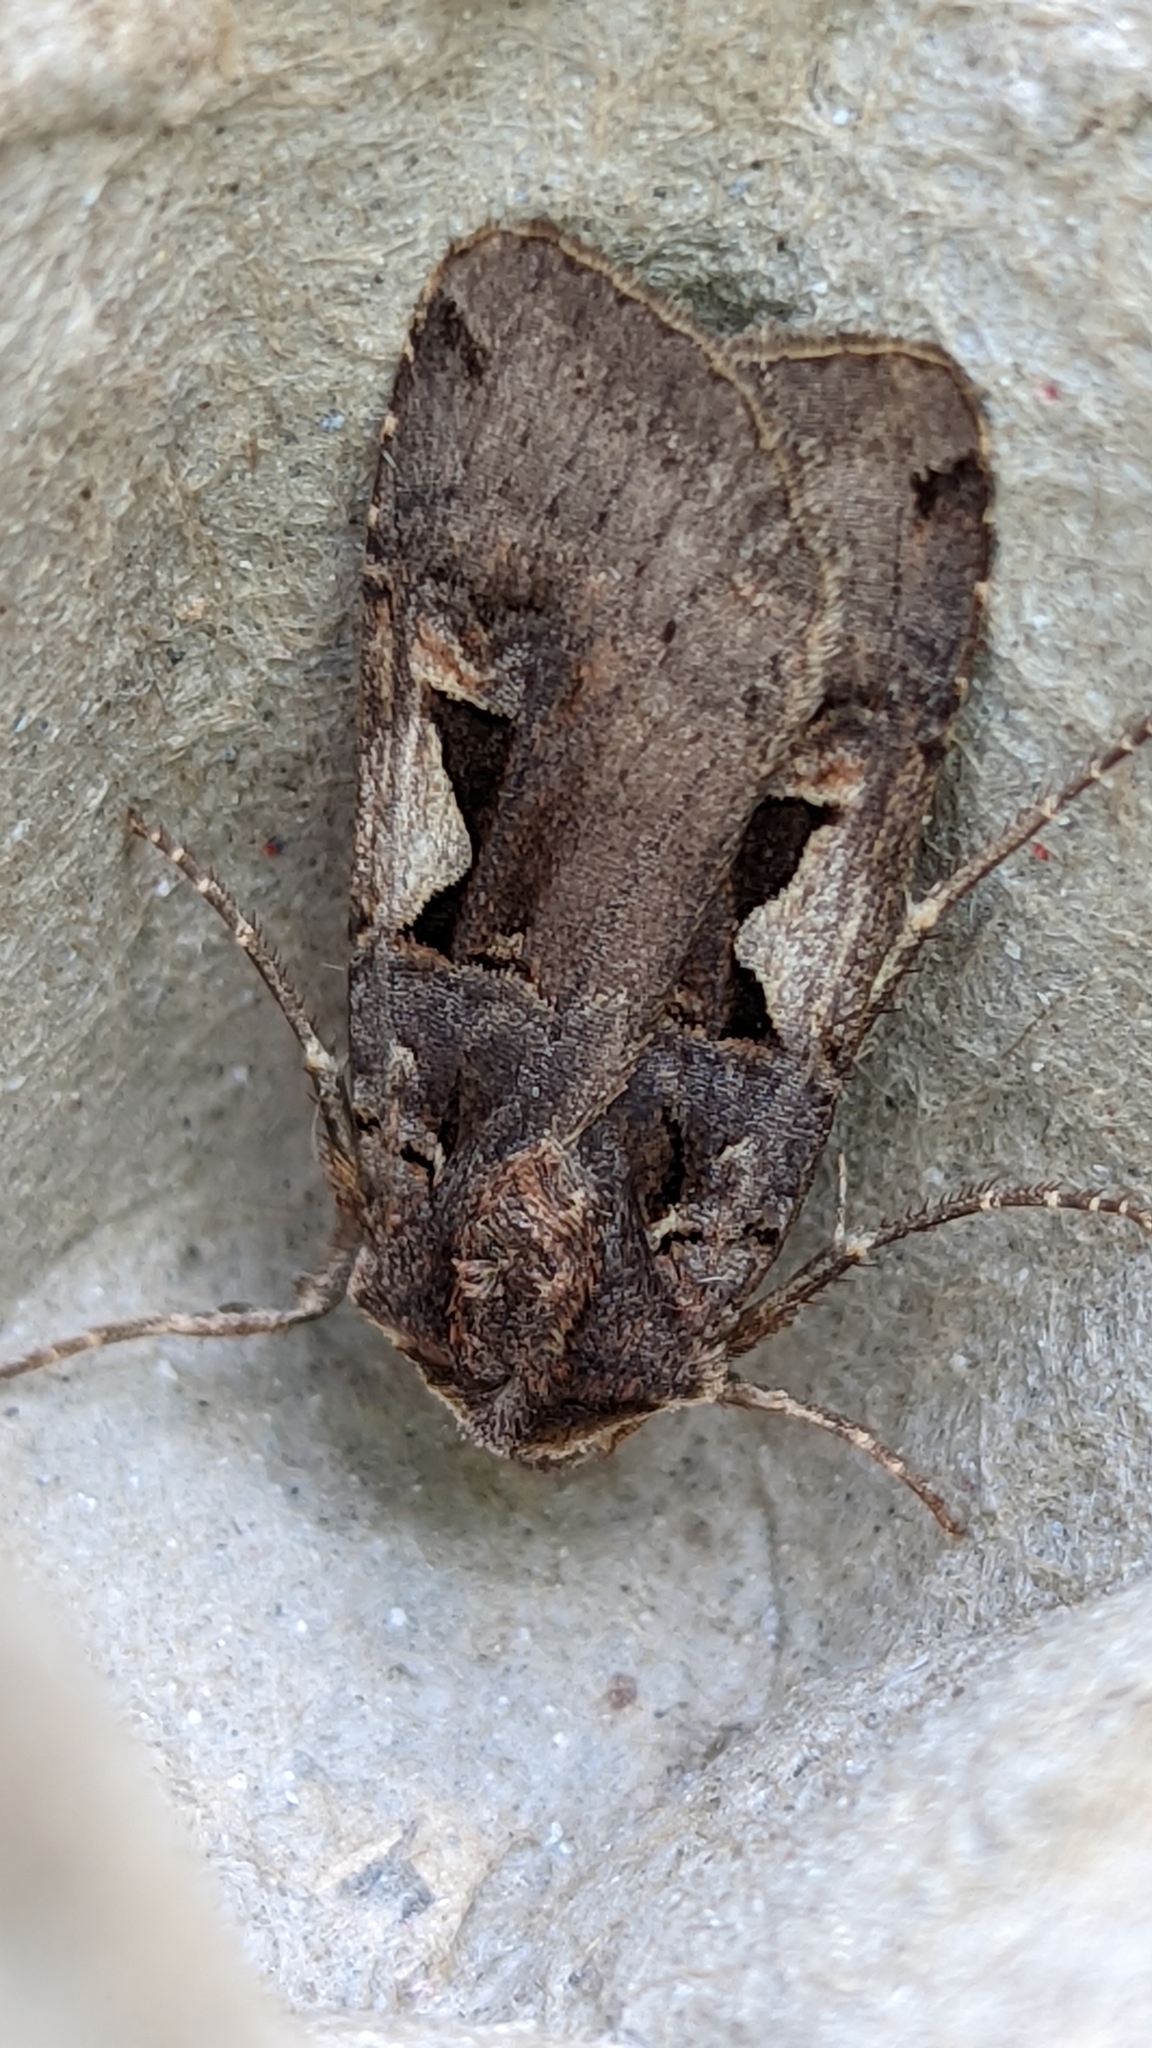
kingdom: Animalia
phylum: Arthropoda
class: Insecta
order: Lepidoptera
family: Noctuidae
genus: Xestia
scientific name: Xestia c-nigrum
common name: Setaceous hebrew character
